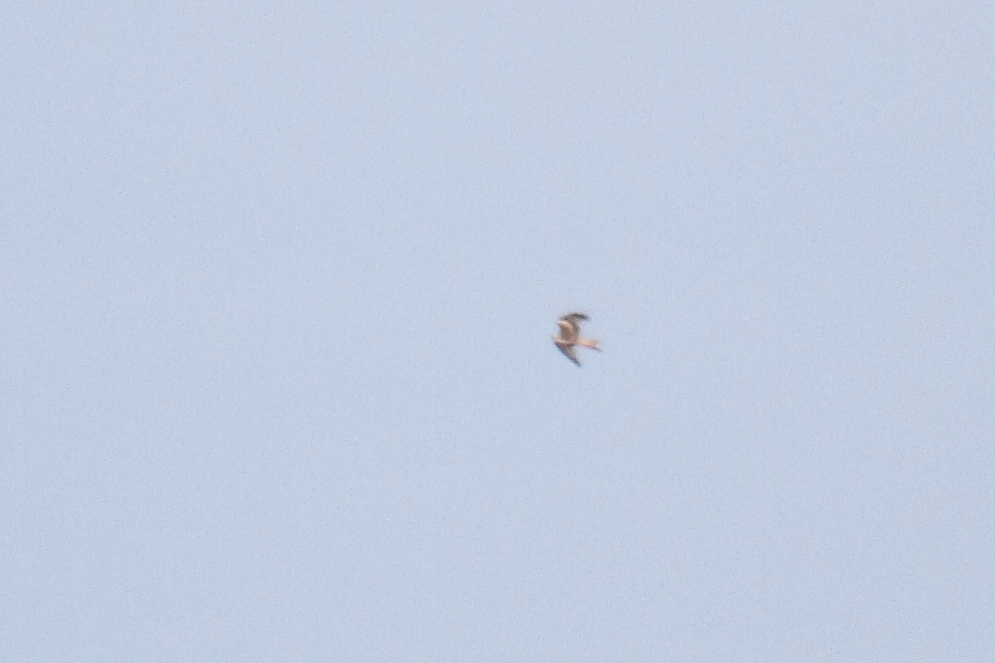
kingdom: Animalia
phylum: Chordata
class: Aves
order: Accipitriformes
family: Accipitridae
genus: Milvus
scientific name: Milvus milvus
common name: Red kite
